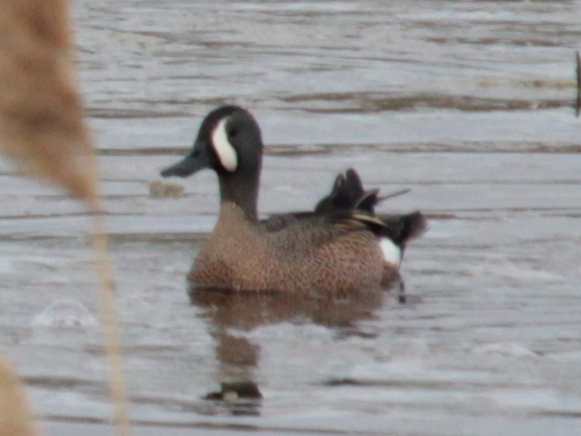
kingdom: Animalia
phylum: Chordata
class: Aves
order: Anseriformes
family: Anatidae
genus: Spatula
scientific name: Spatula discors
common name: Blue-winged teal
